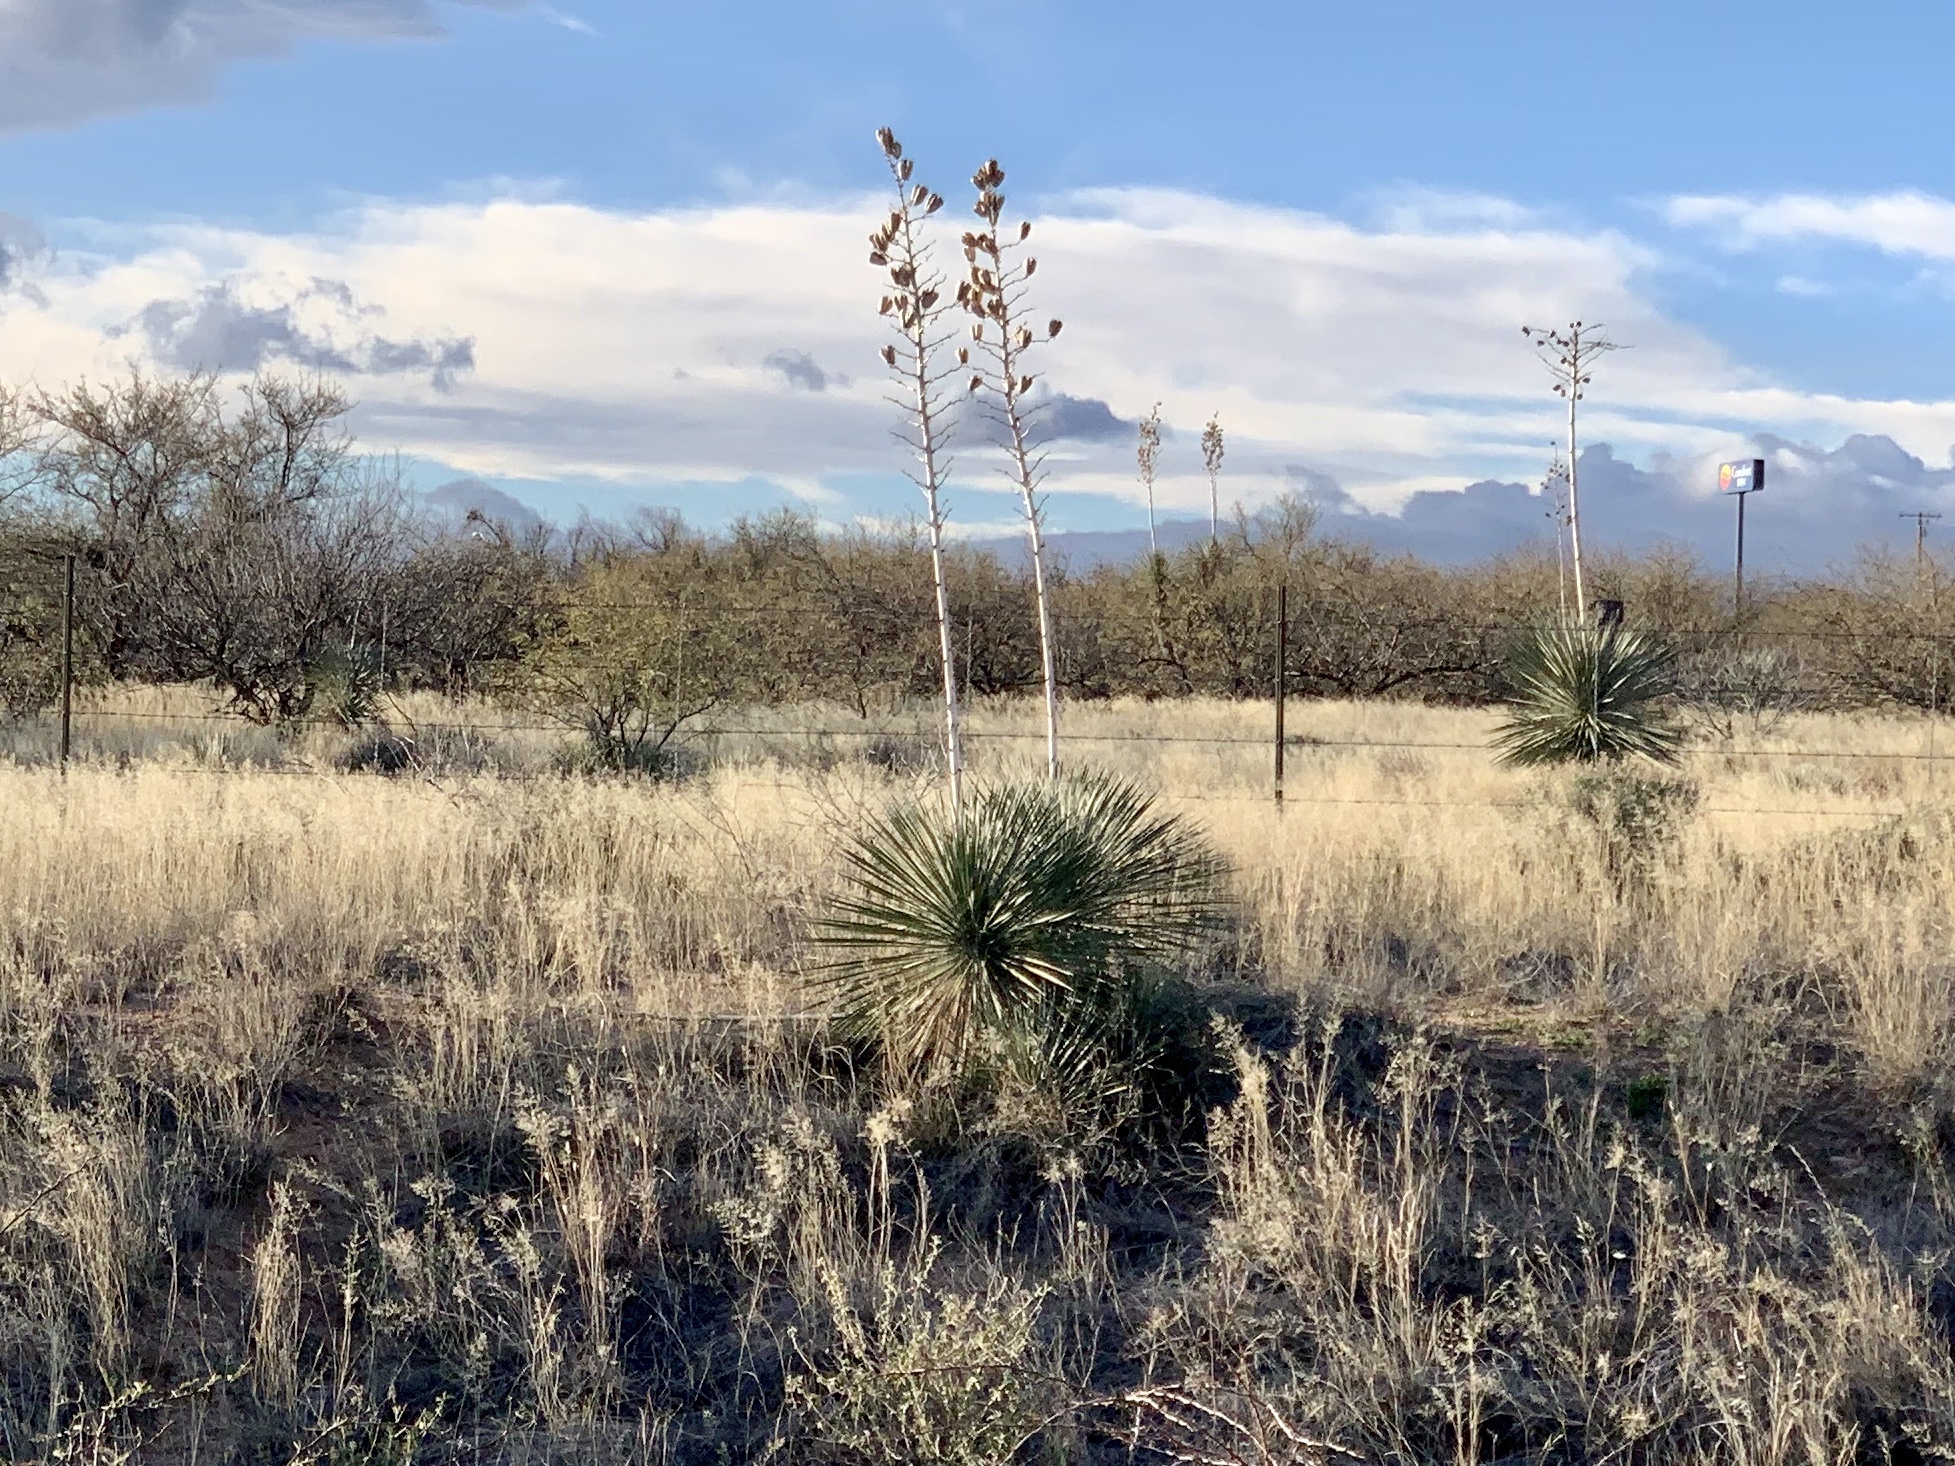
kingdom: Plantae
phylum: Tracheophyta
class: Liliopsida
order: Asparagales
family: Asparagaceae
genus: Yucca
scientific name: Yucca elata
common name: Palmella
